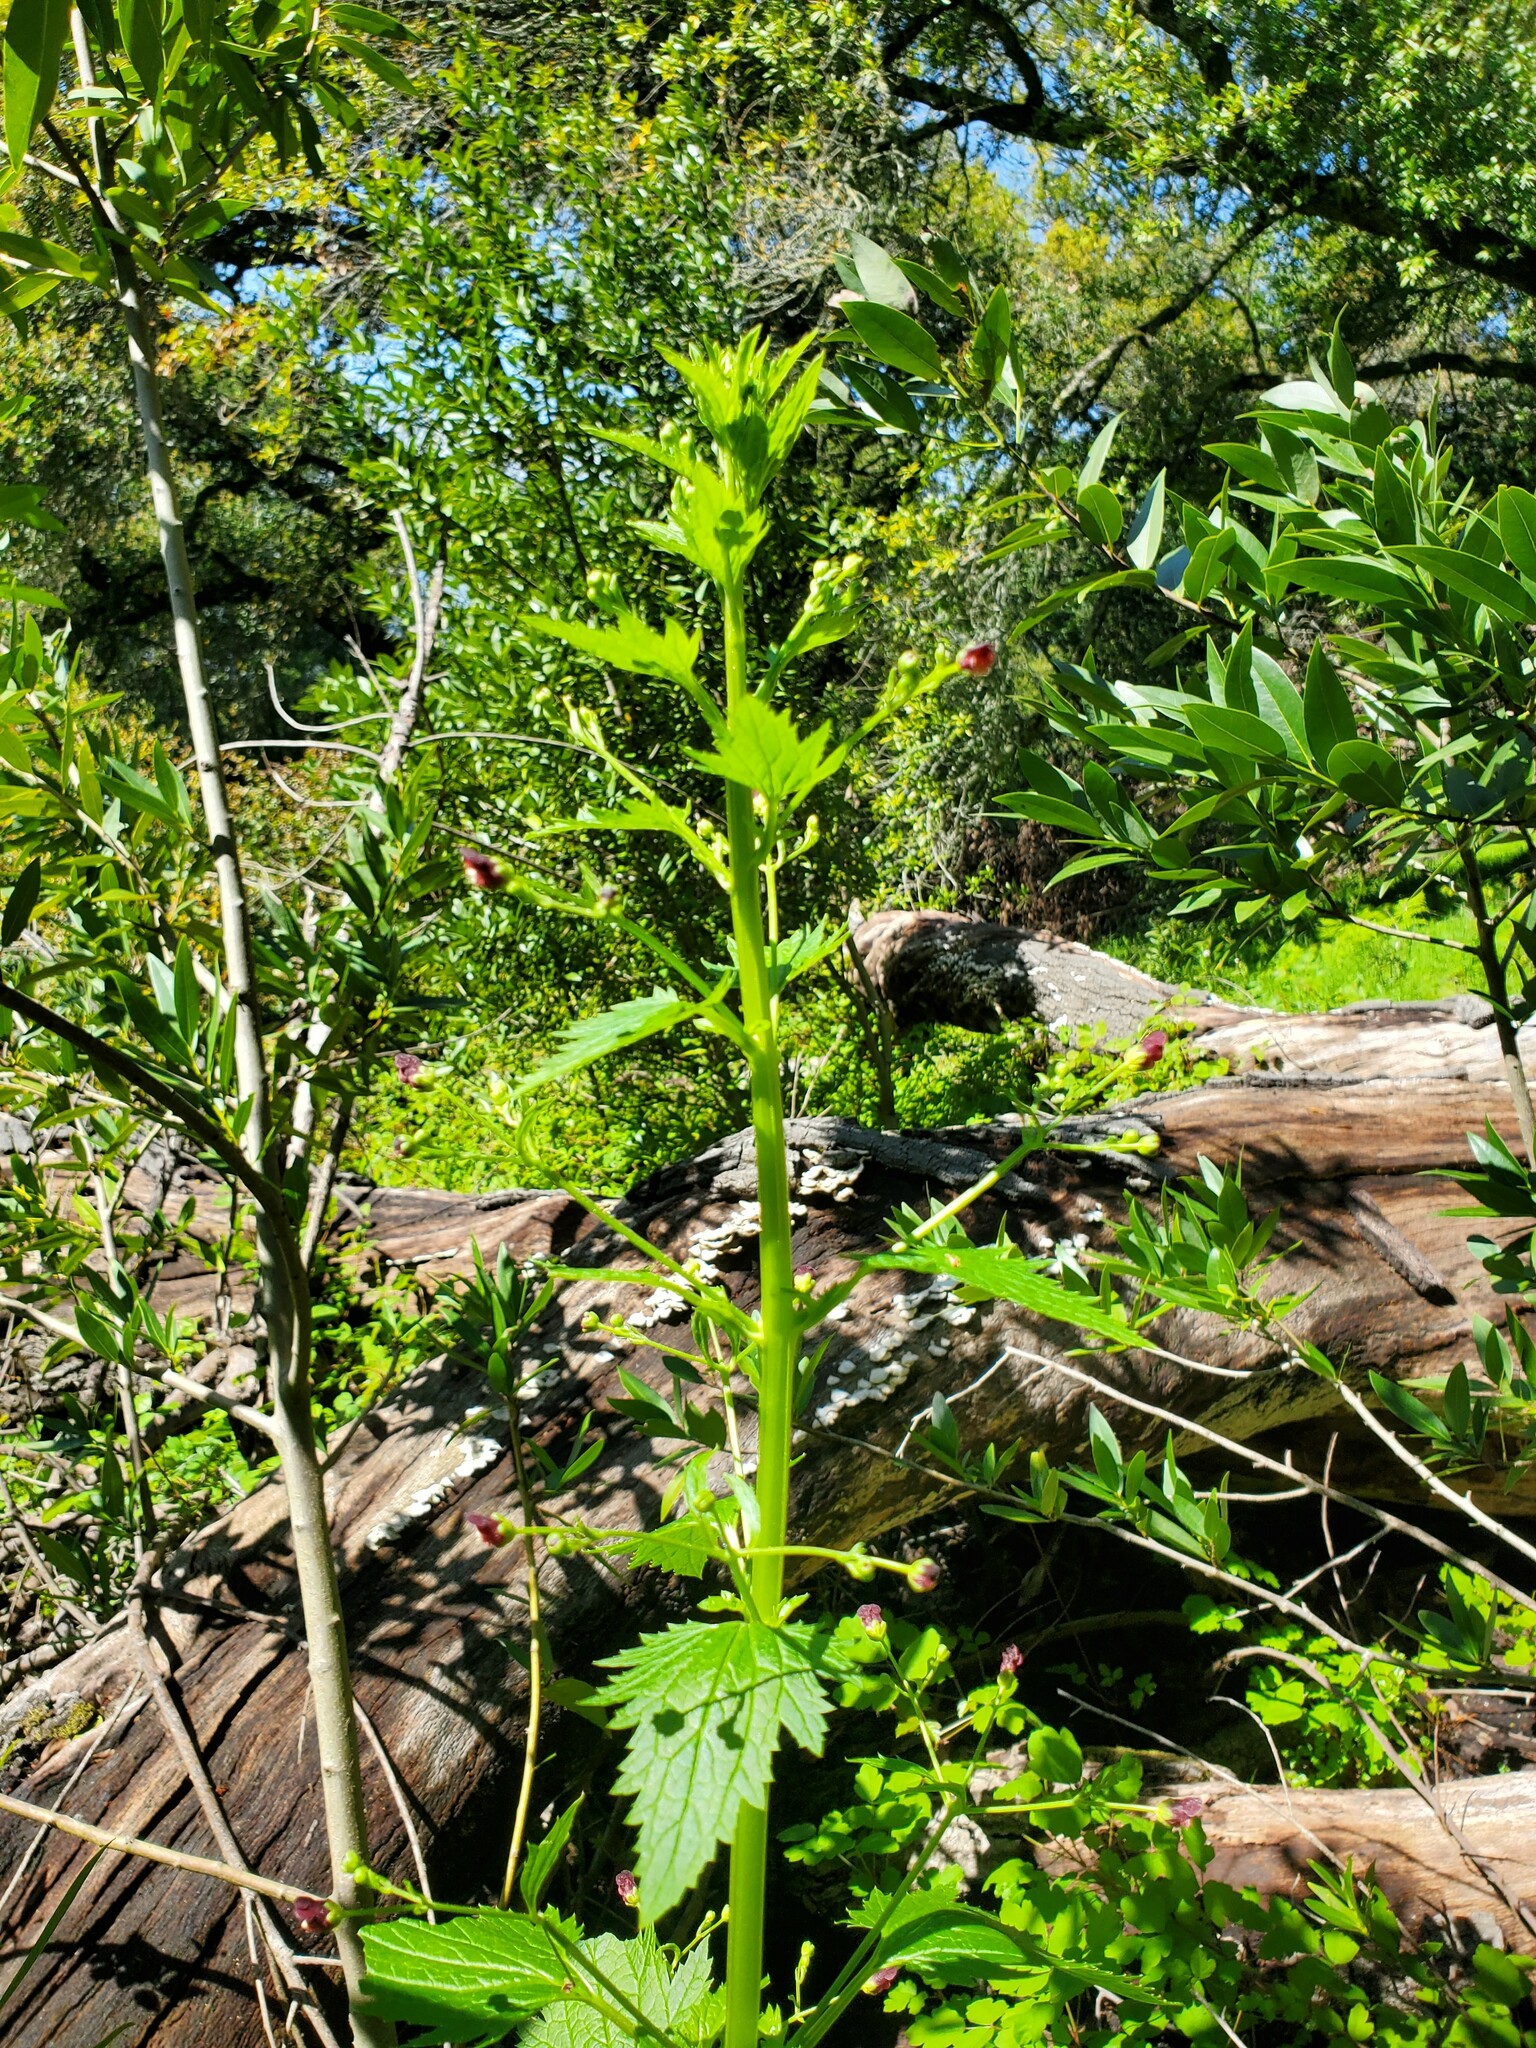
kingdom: Plantae
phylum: Tracheophyta
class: Magnoliopsida
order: Lamiales
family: Scrophulariaceae
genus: Scrophularia
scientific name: Scrophularia californica
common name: California figwort
